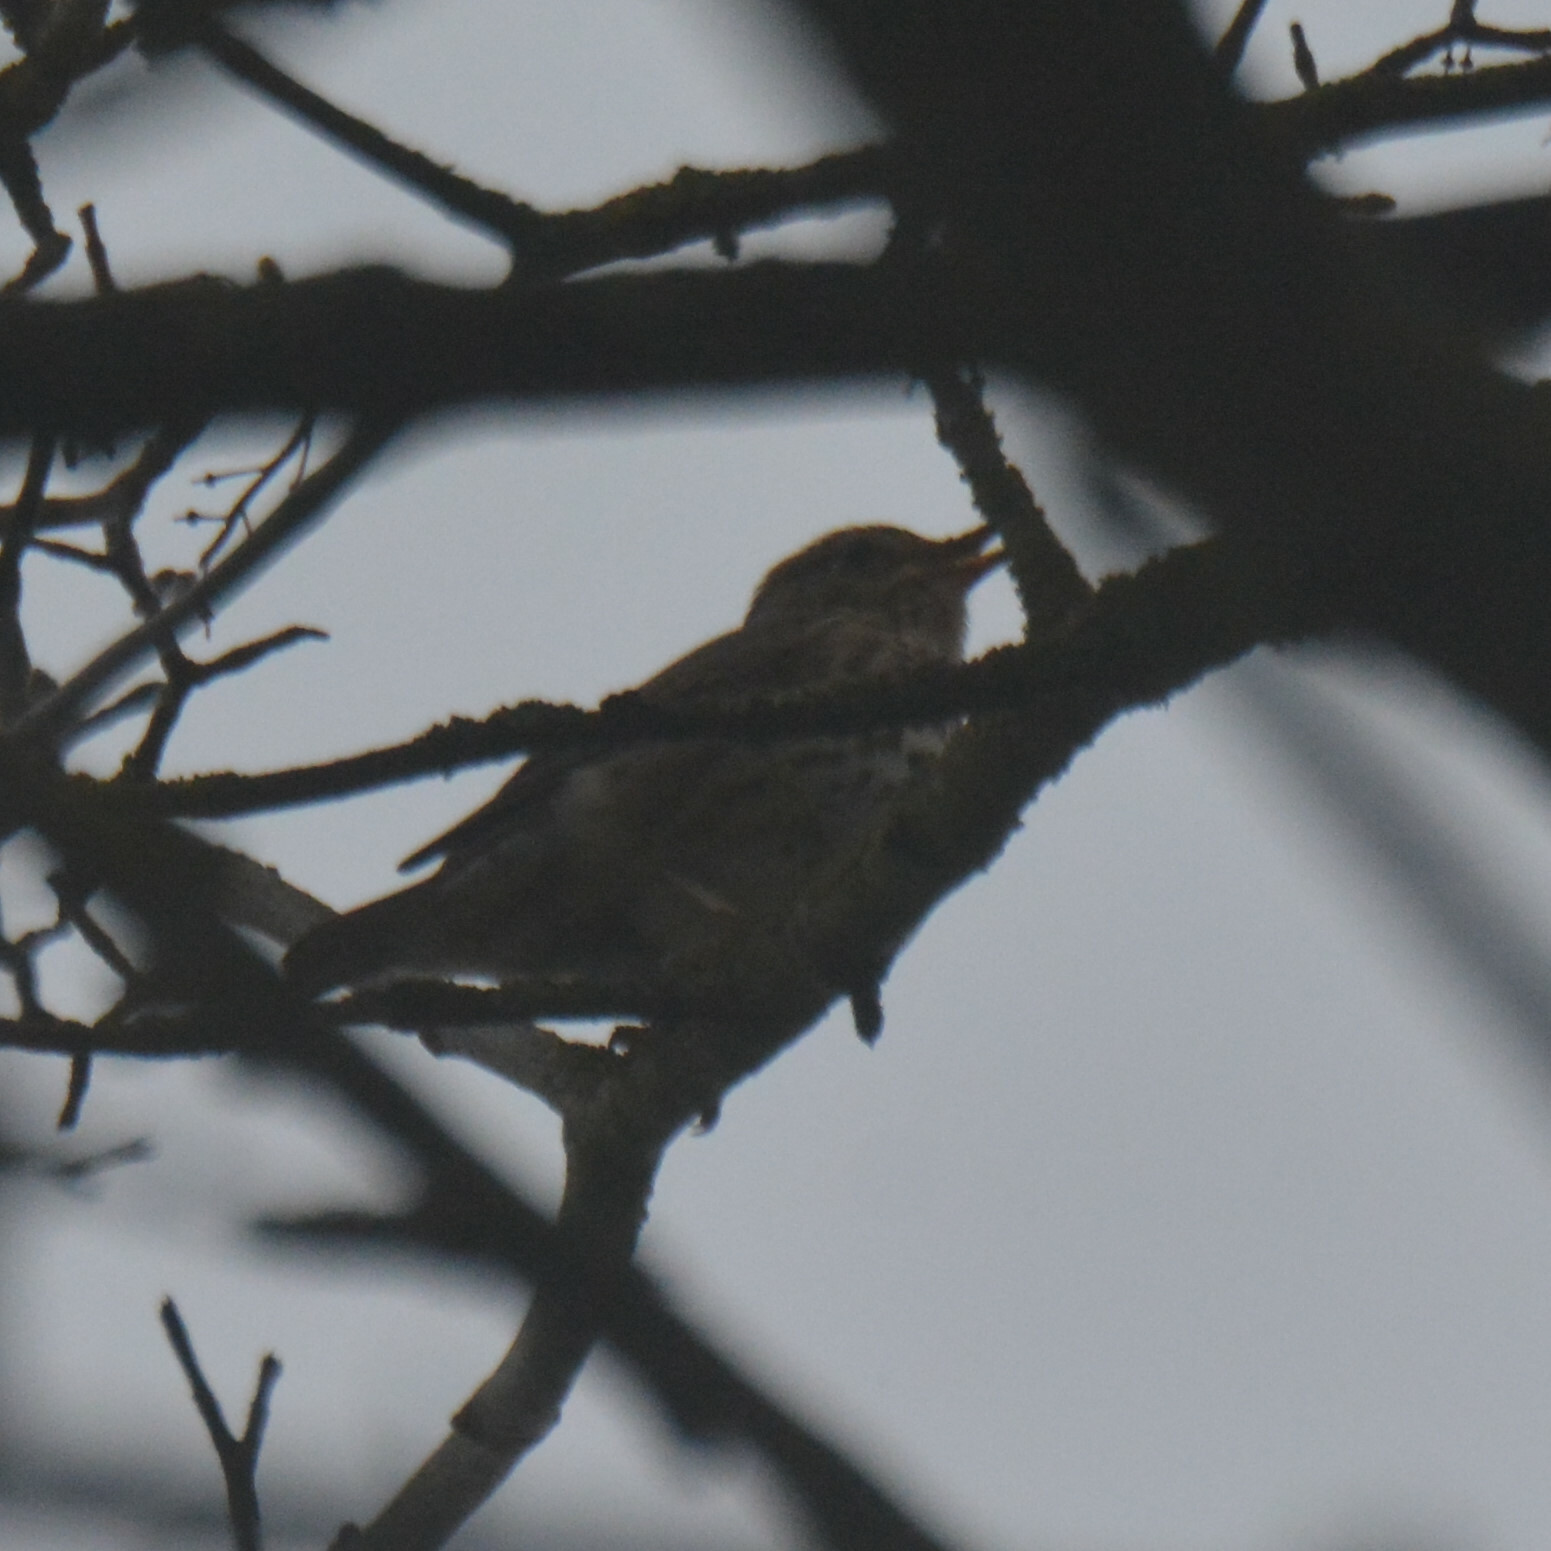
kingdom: Animalia
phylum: Chordata
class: Aves
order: Passeriformes
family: Turdidae
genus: Turdus
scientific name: Turdus philomelos
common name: Song thrush
